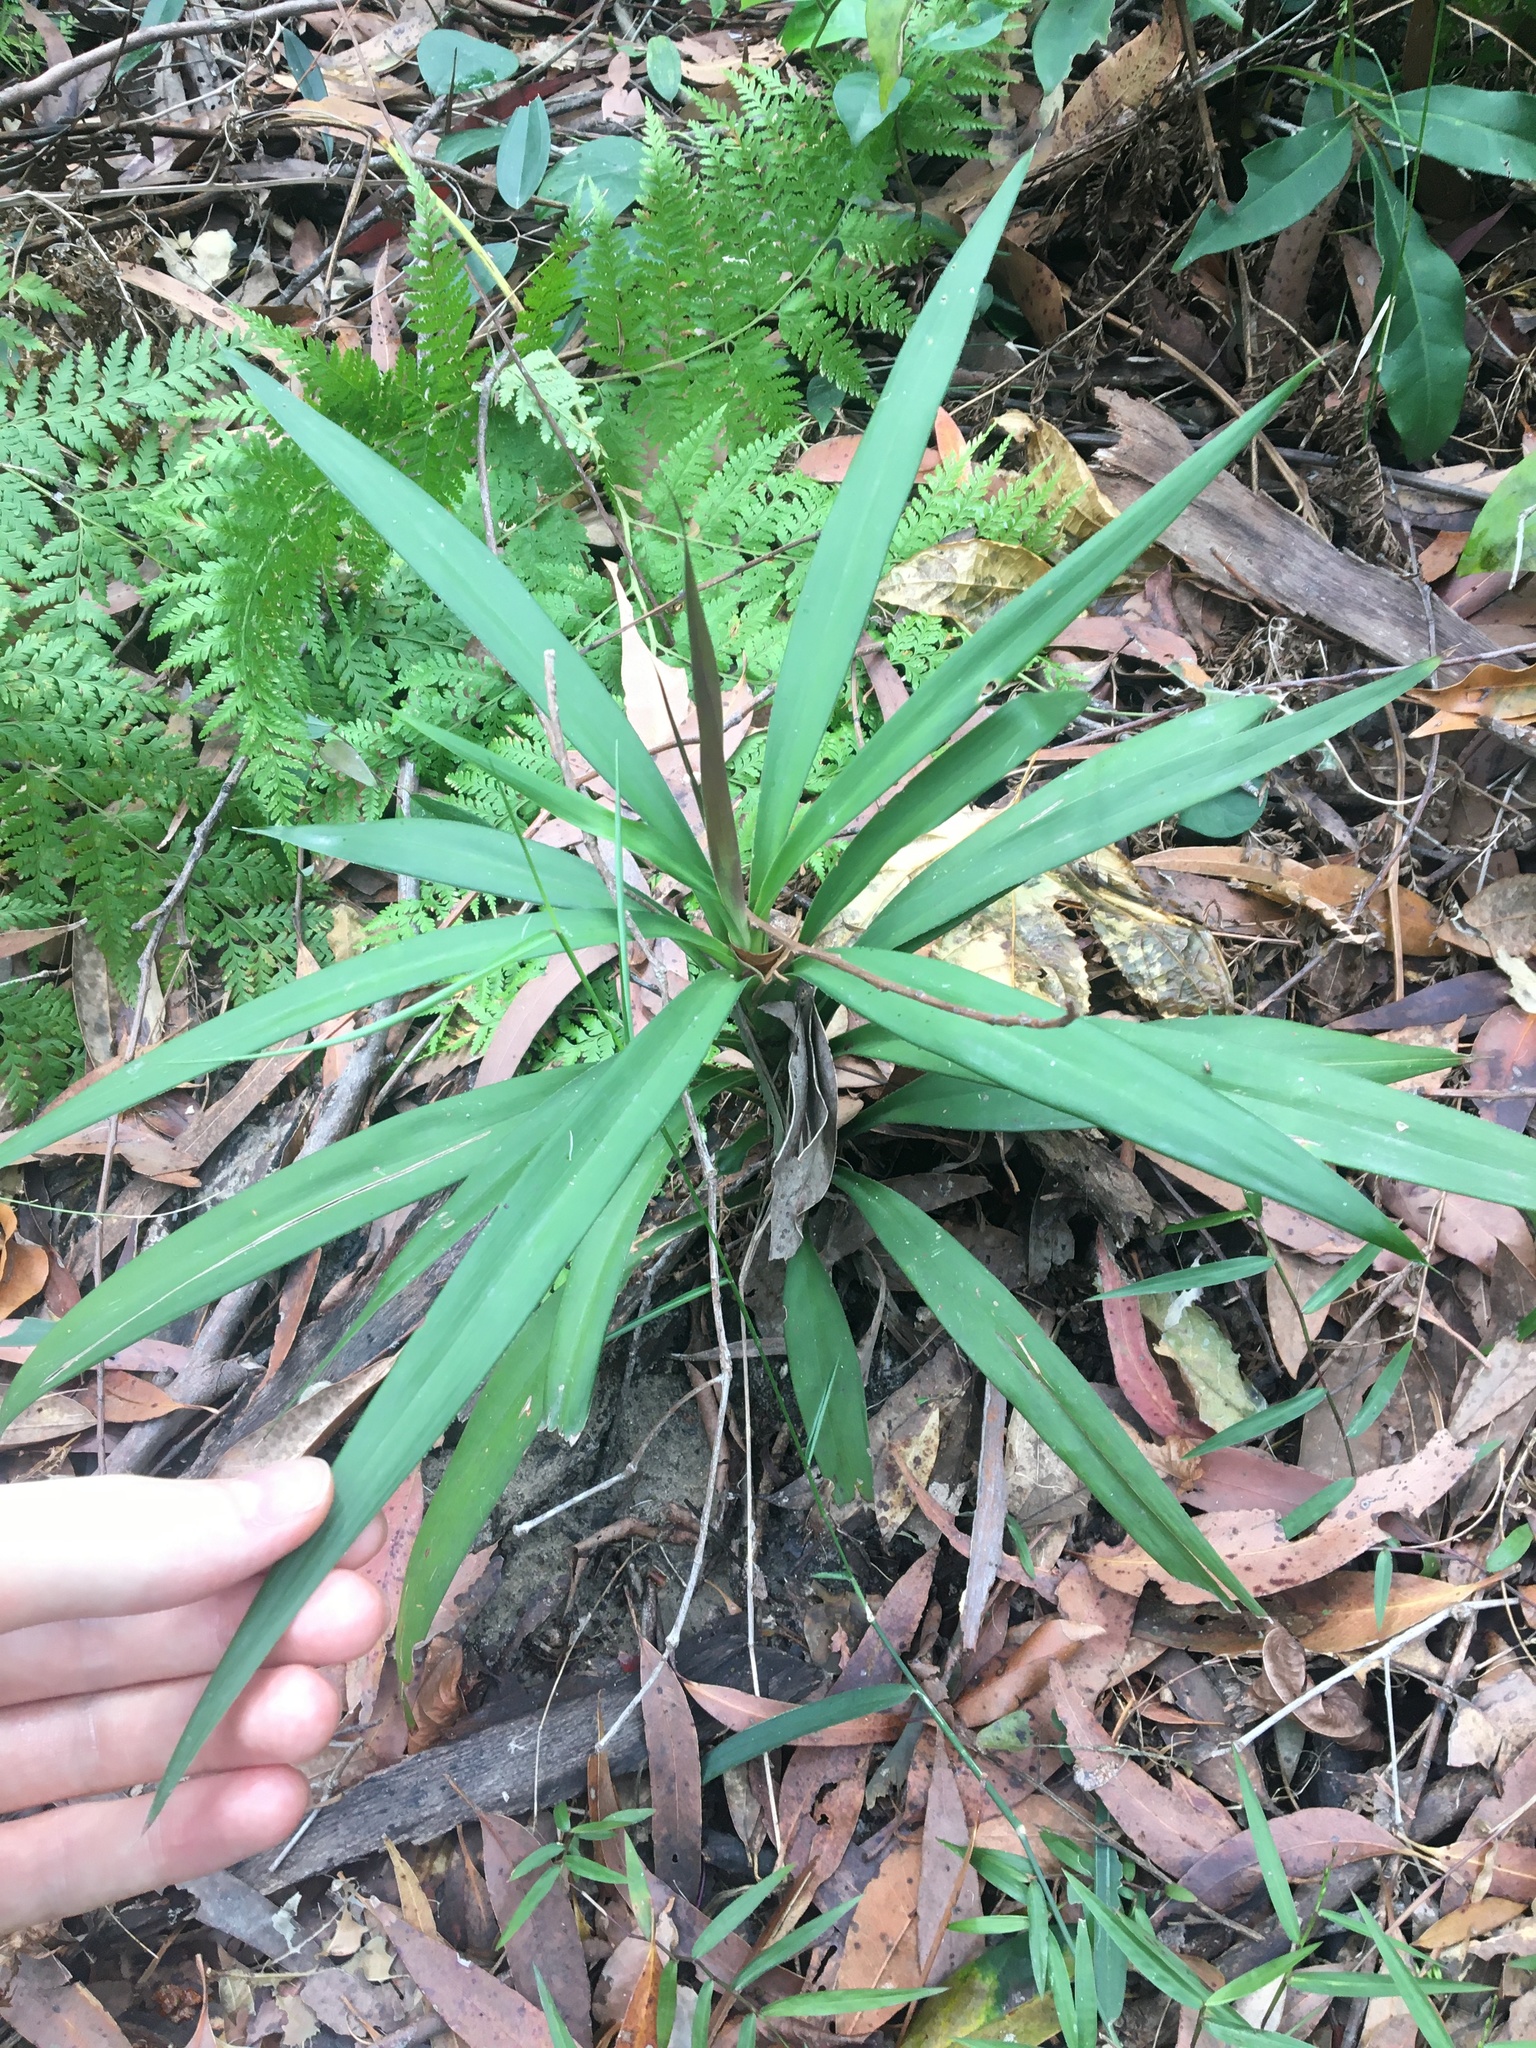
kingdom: Plantae
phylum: Tracheophyta
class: Liliopsida
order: Asparagales
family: Asparagaceae
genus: Cordyline
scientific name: Cordyline stricta
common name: Narrow-leaf palm-lily
